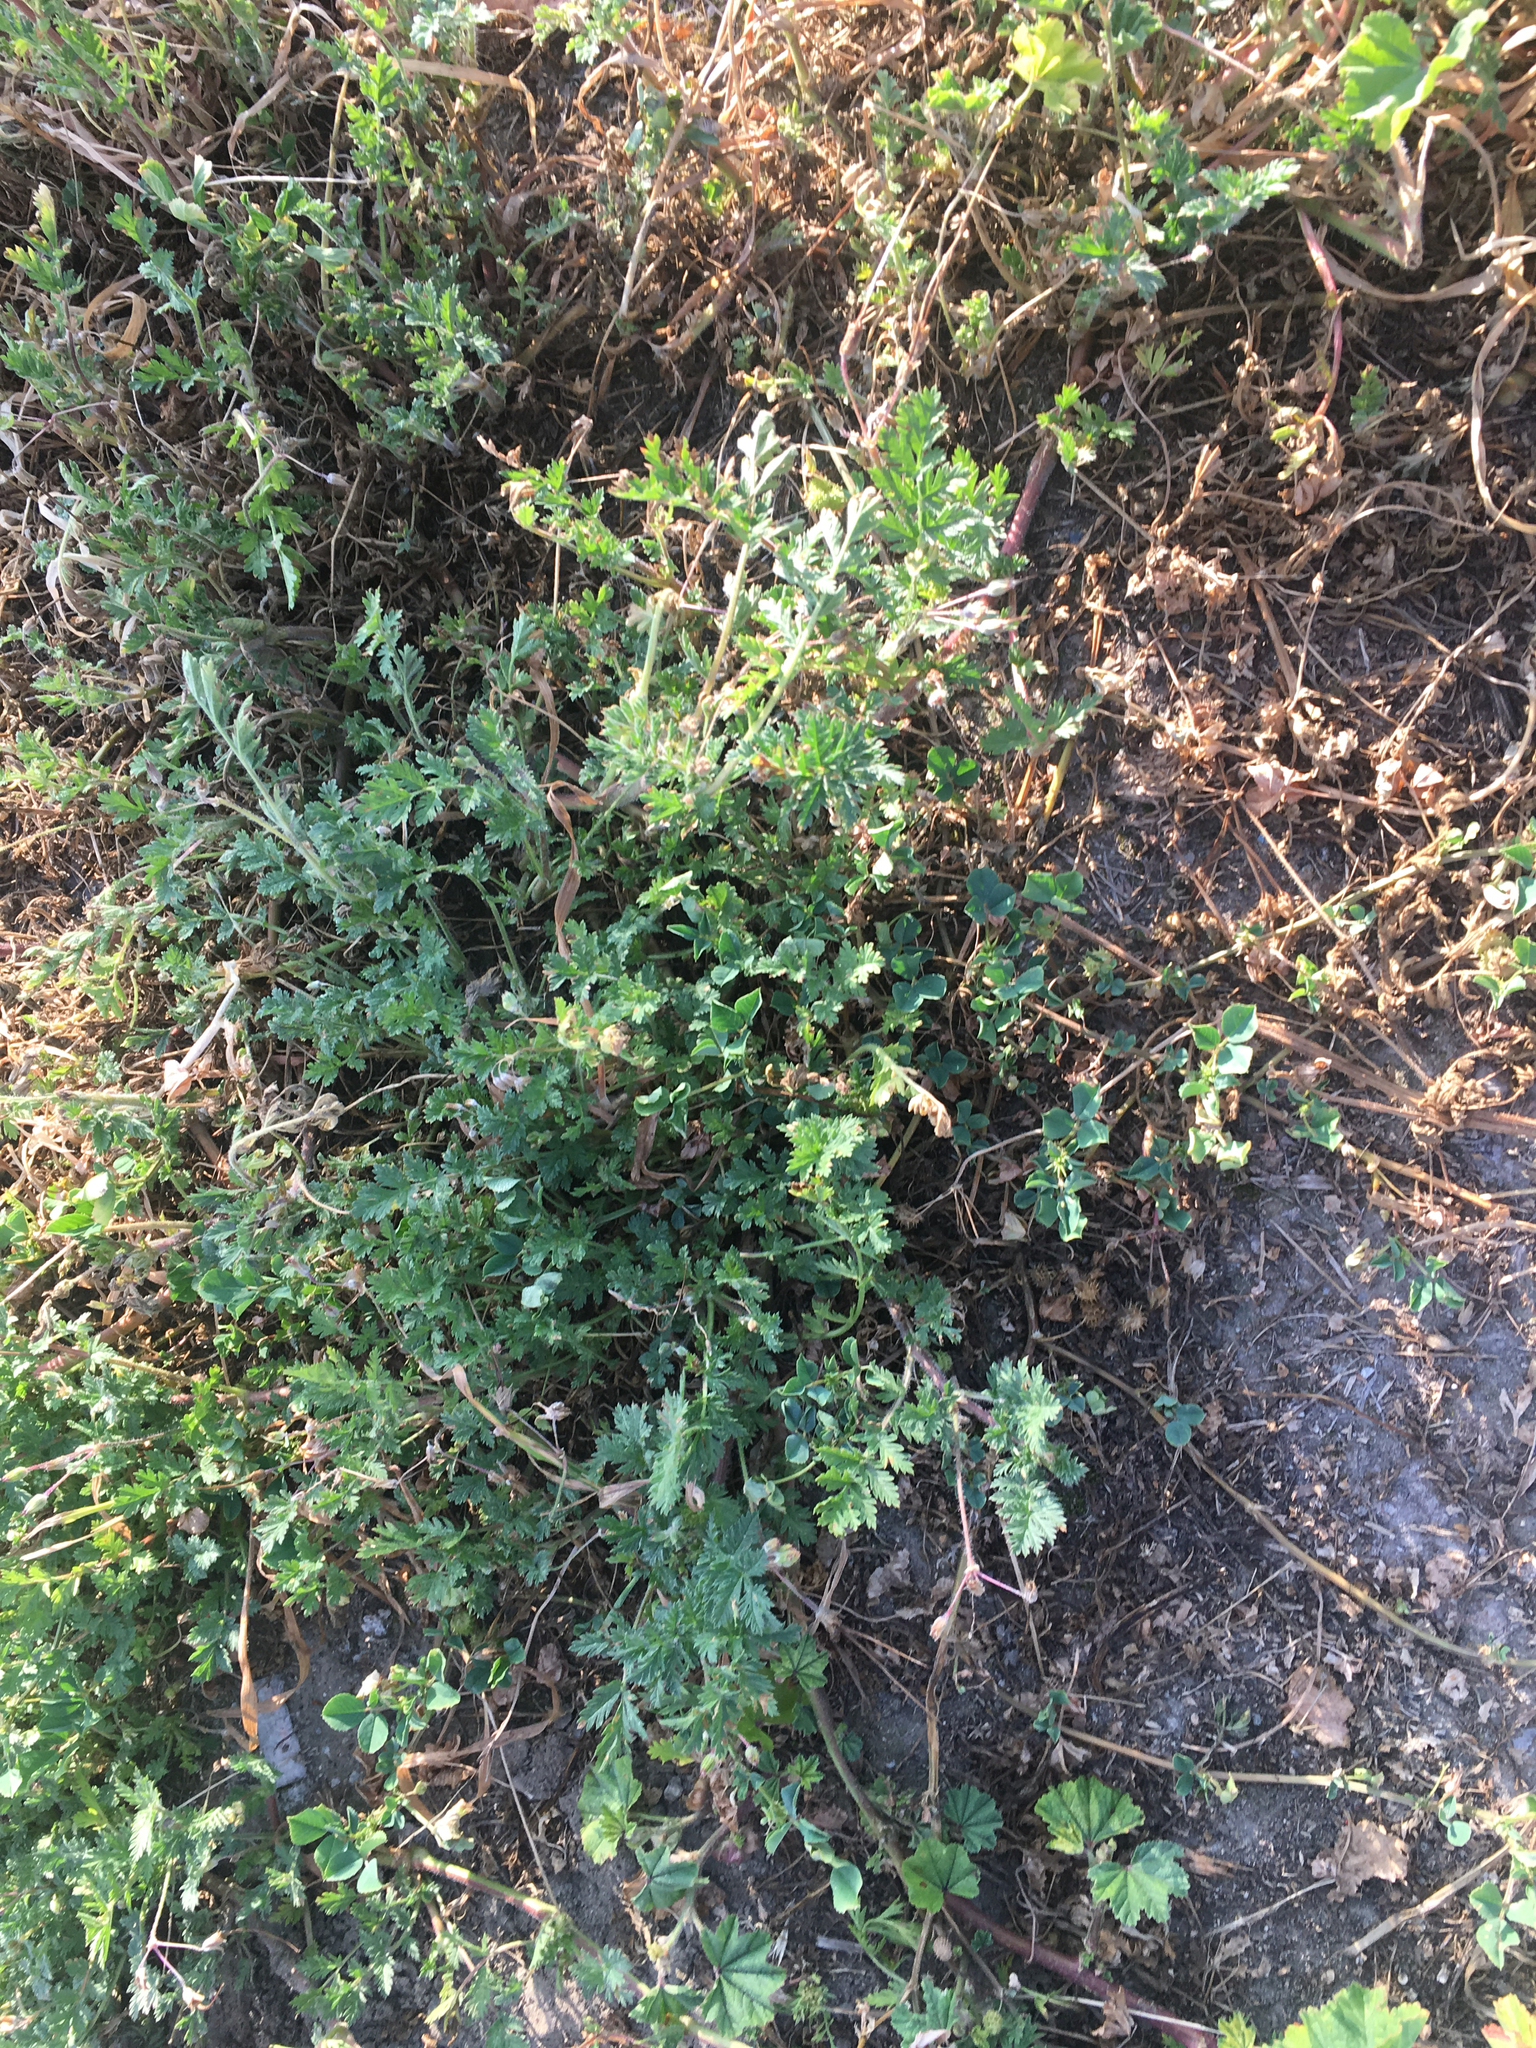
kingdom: Plantae
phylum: Tracheophyta
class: Magnoliopsida
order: Geraniales
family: Geraniaceae
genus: Erodium
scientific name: Erodium cicutarium
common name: Common stork's-bill
